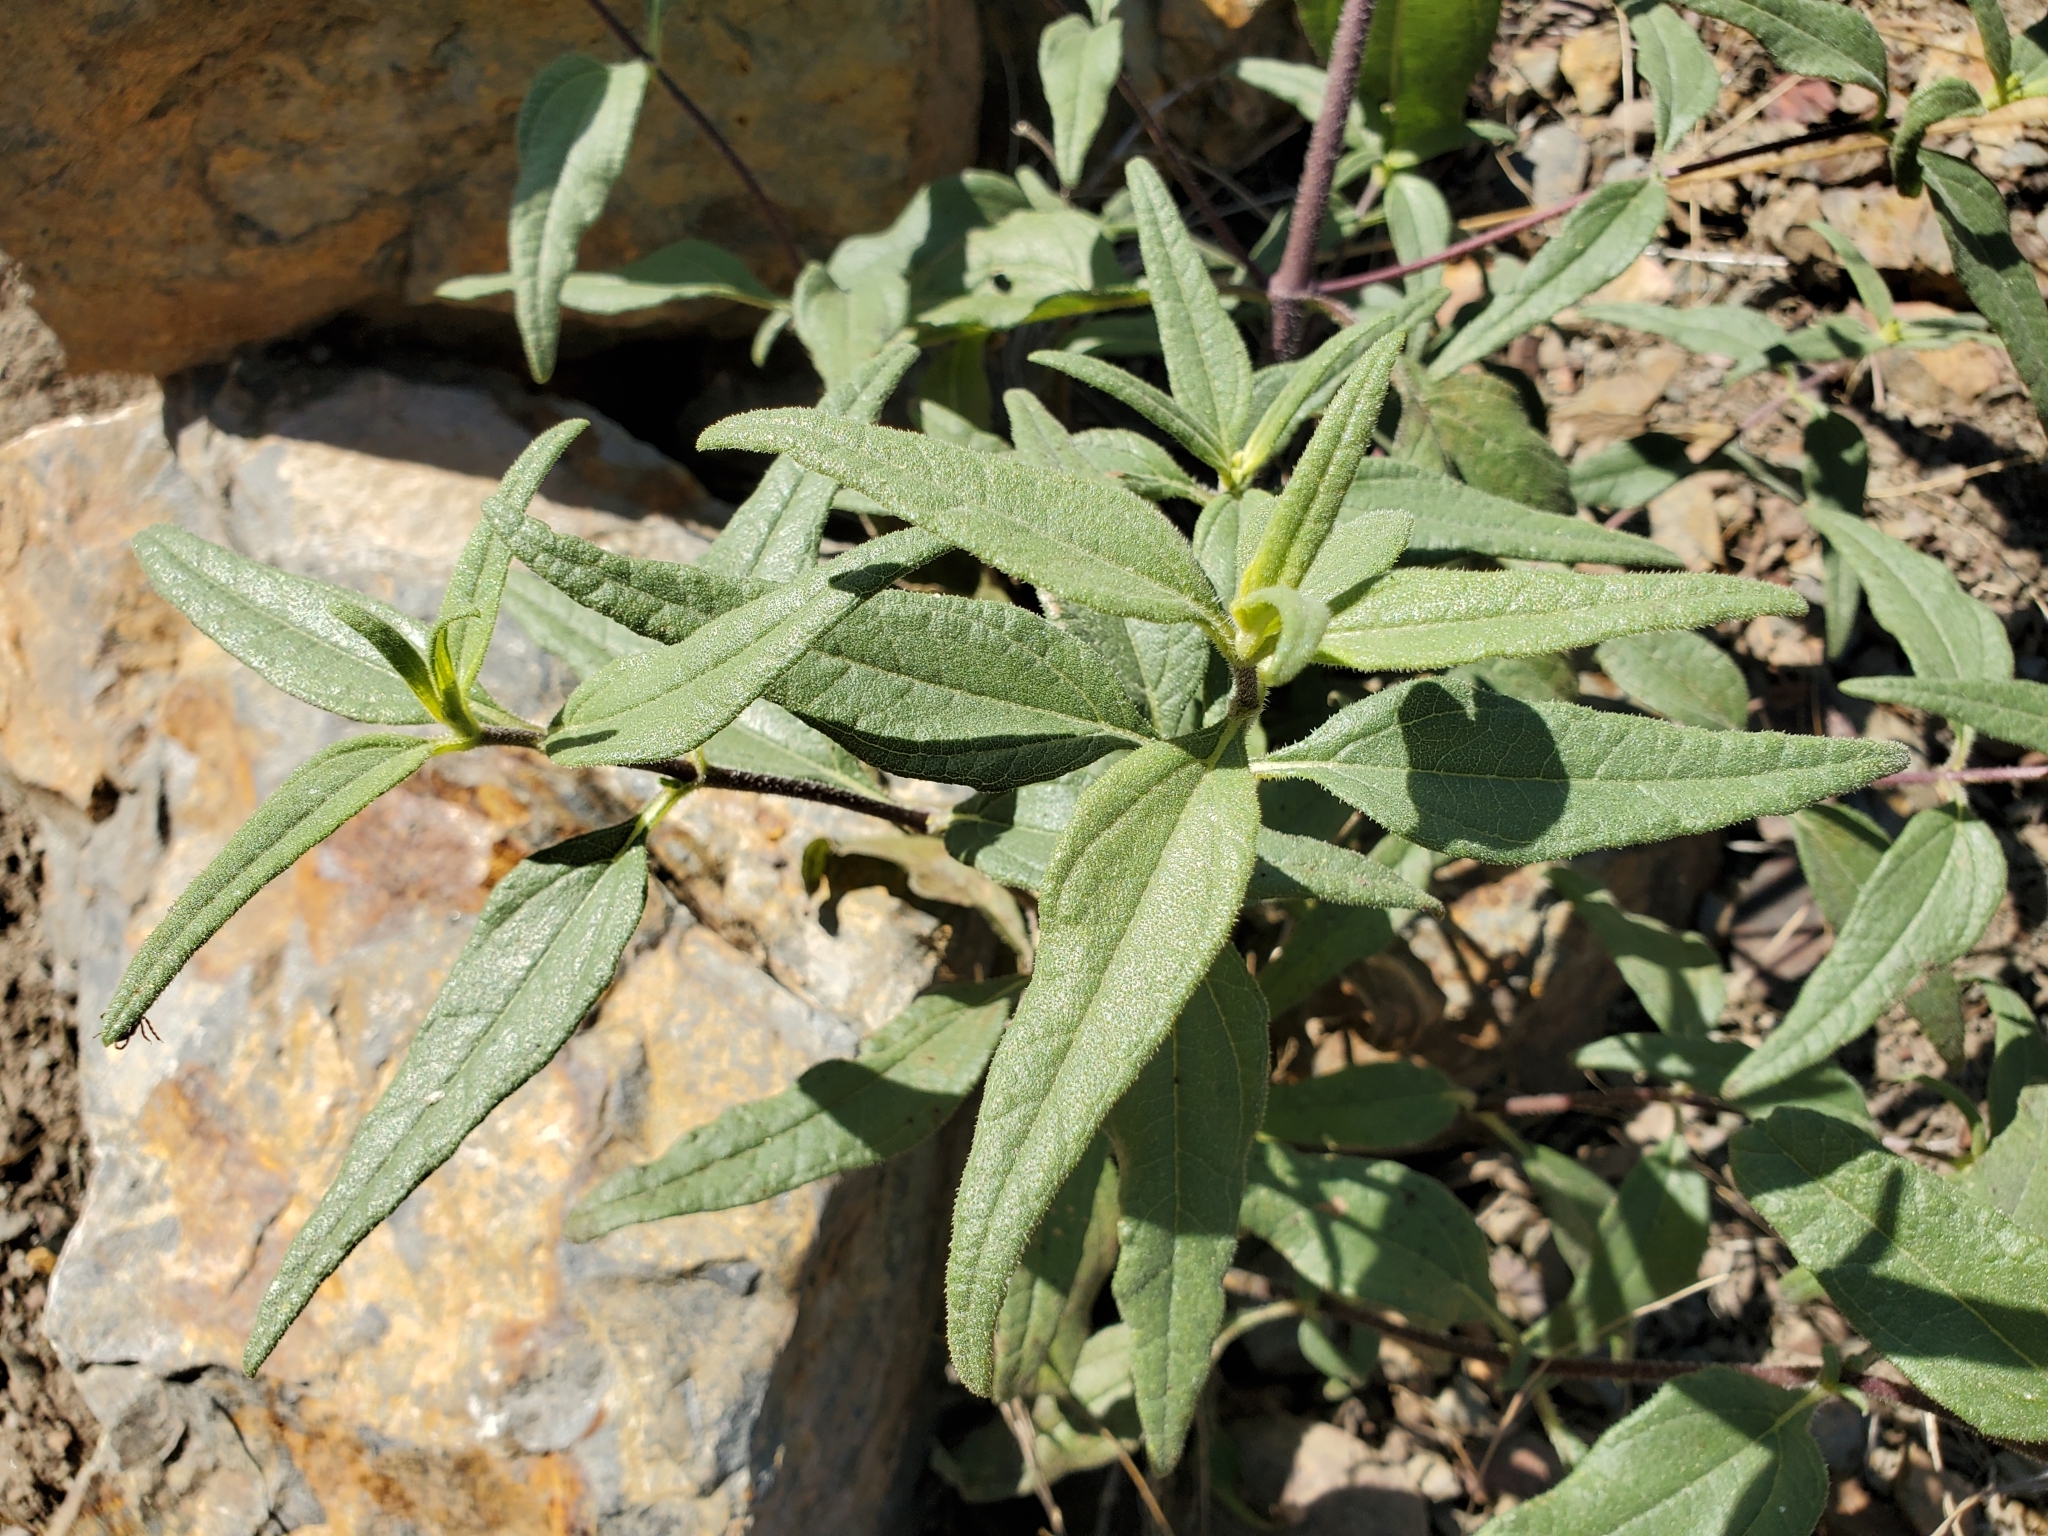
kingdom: Plantae
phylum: Tracheophyta
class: Magnoliopsida
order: Asterales
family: Asteraceae
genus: Helianthus
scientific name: Helianthus gracilentus
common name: Slender sunflower
